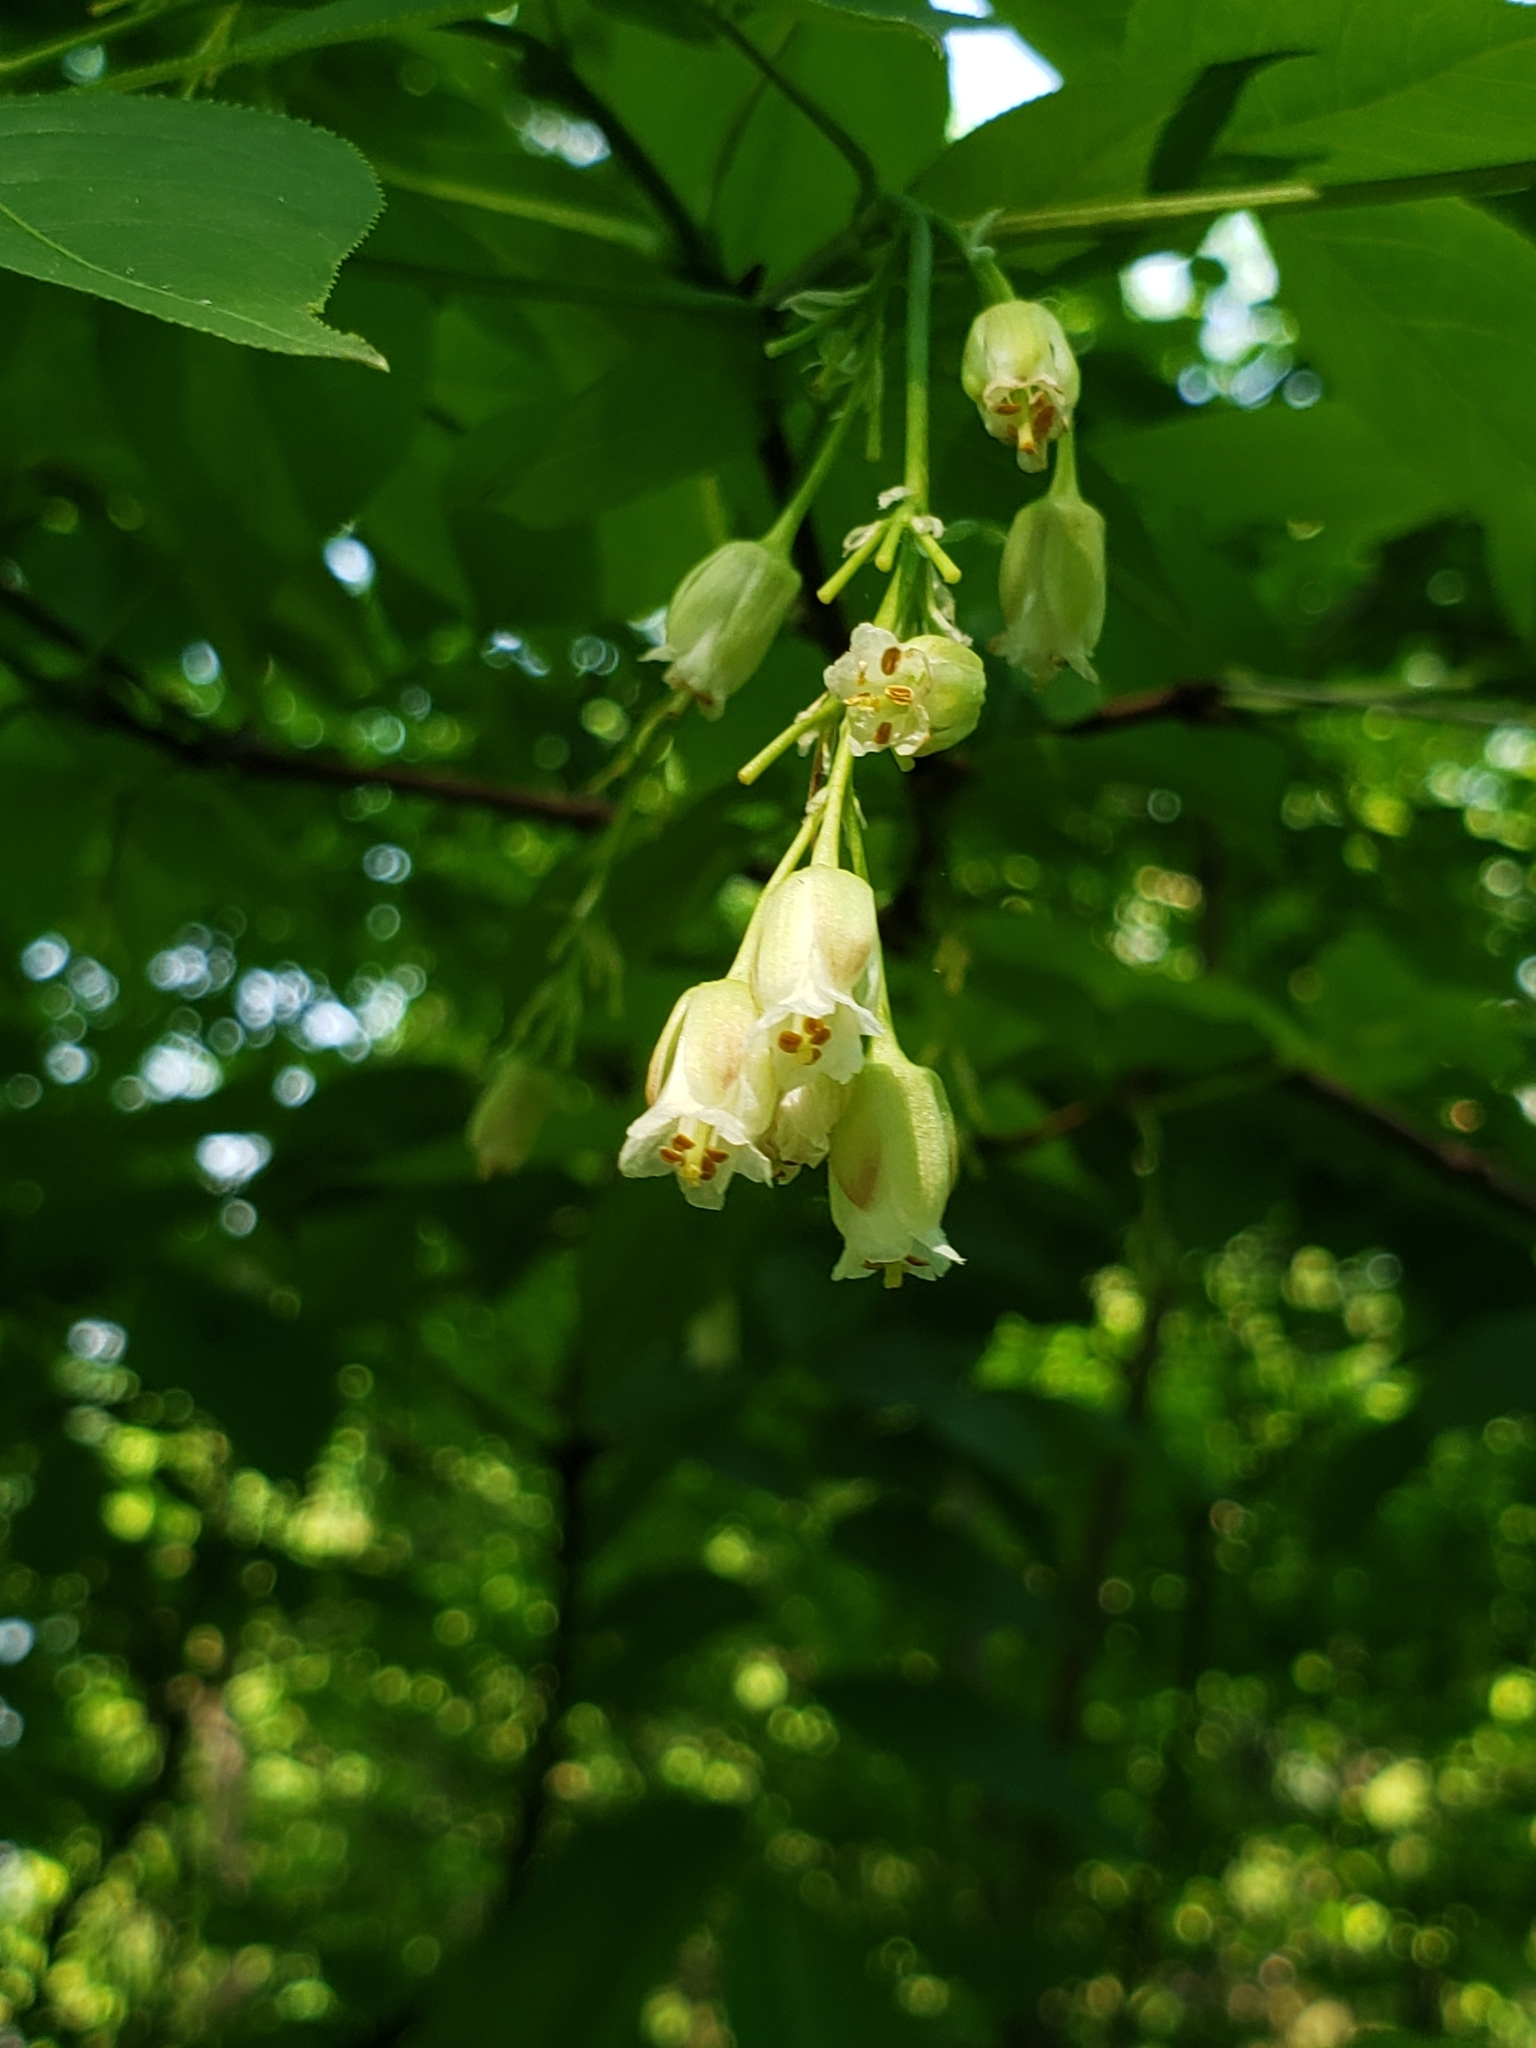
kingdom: Plantae
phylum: Tracheophyta
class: Magnoliopsida
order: Crossosomatales
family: Staphyleaceae
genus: Staphylea
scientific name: Staphylea trifolia
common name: American bladdernut
